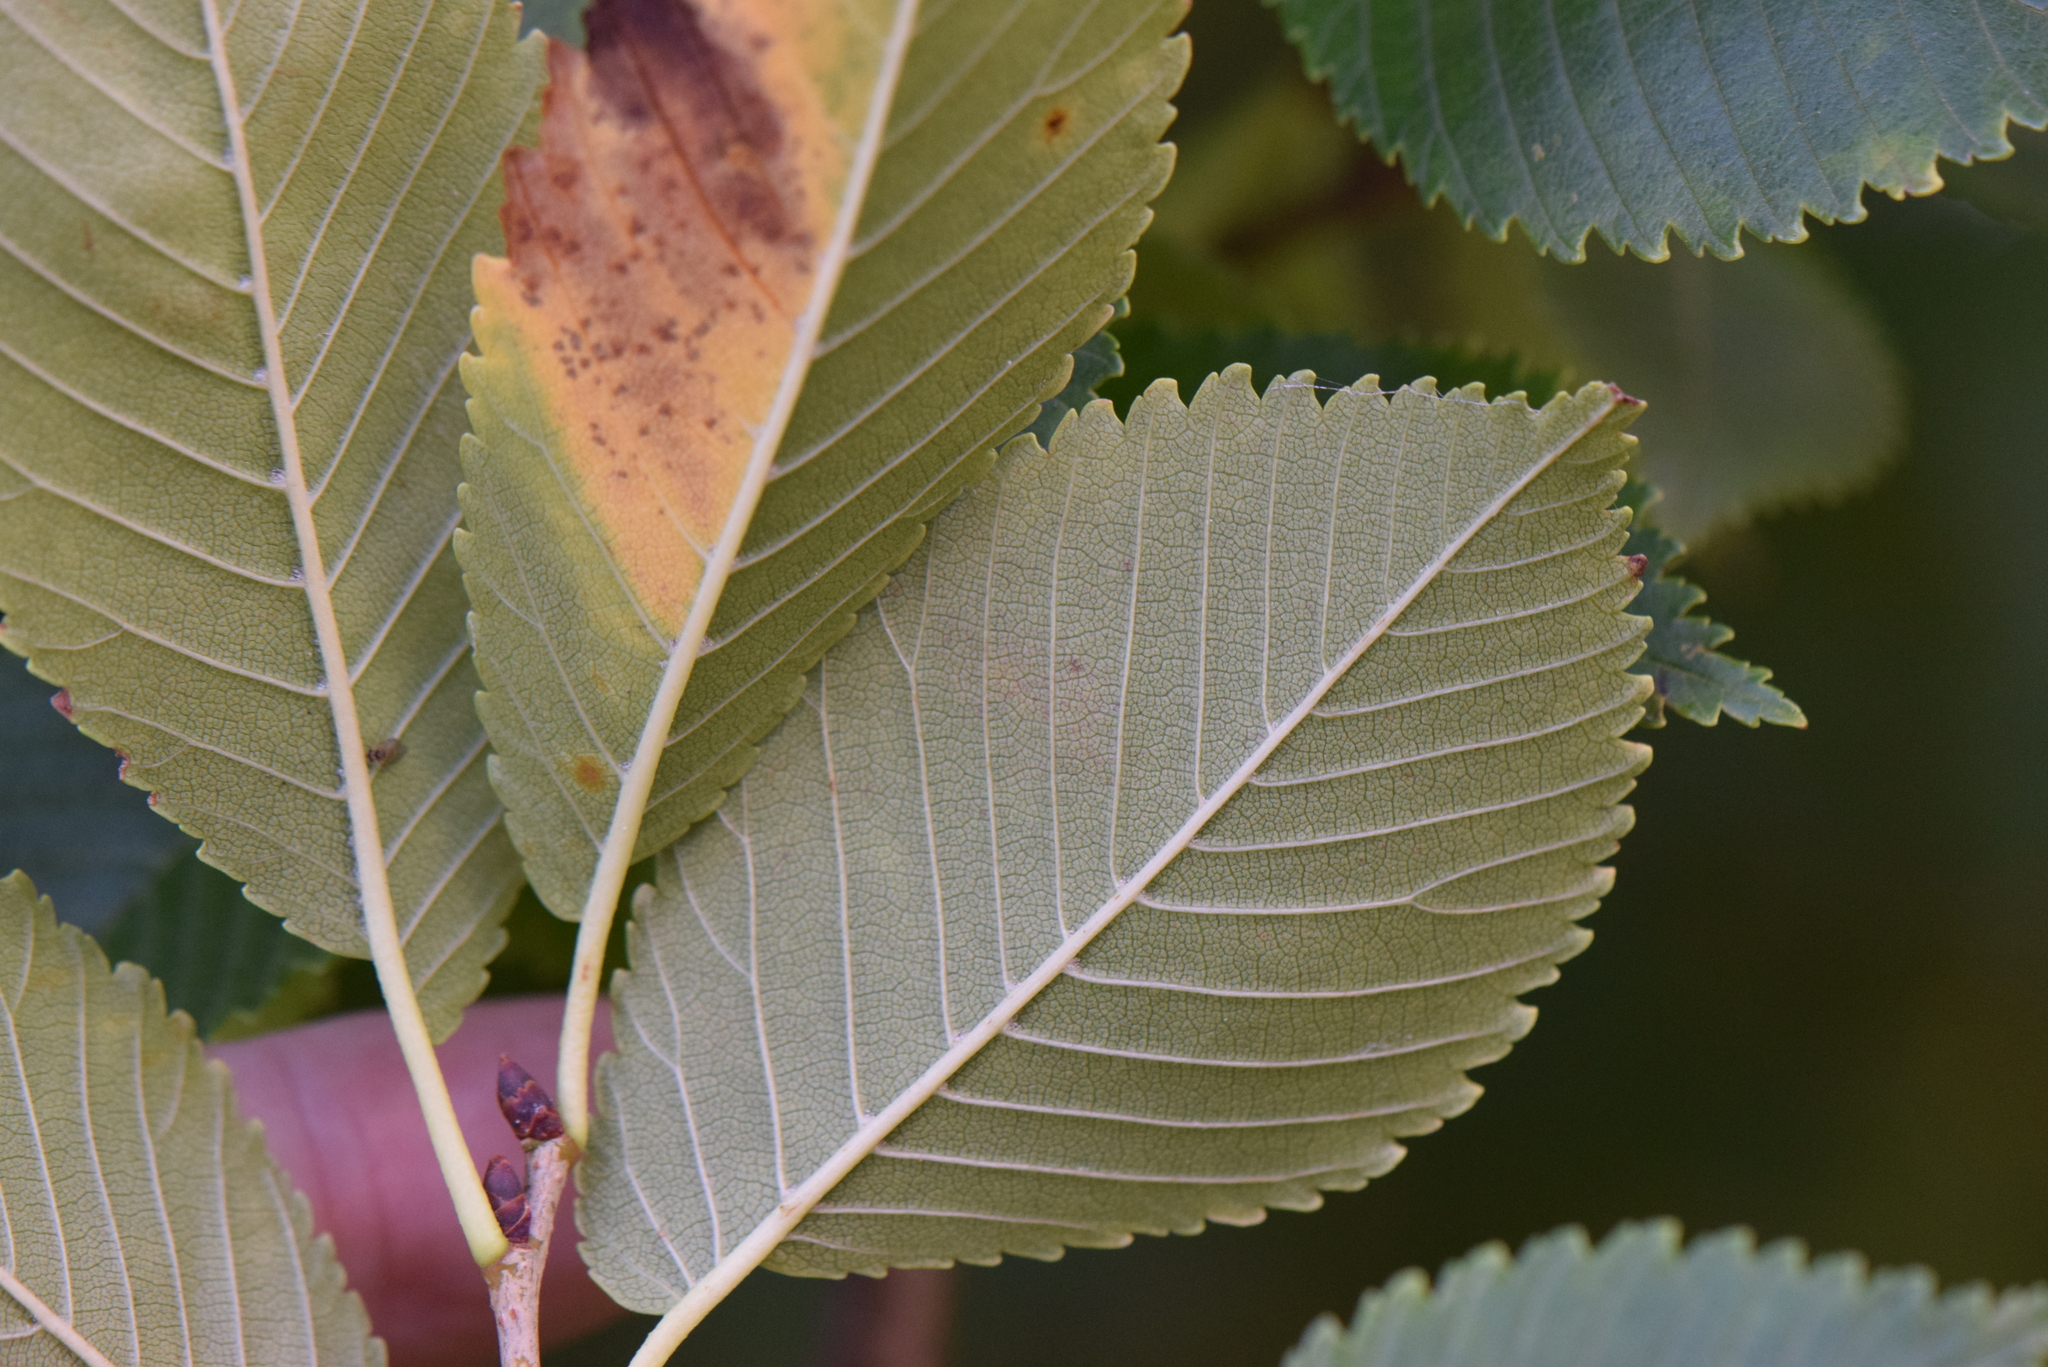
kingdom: Plantae
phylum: Tracheophyta
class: Magnoliopsida
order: Rosales
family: Ulmaceae
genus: Ulmus
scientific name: Ulmus minor
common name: Small-leaved elm
